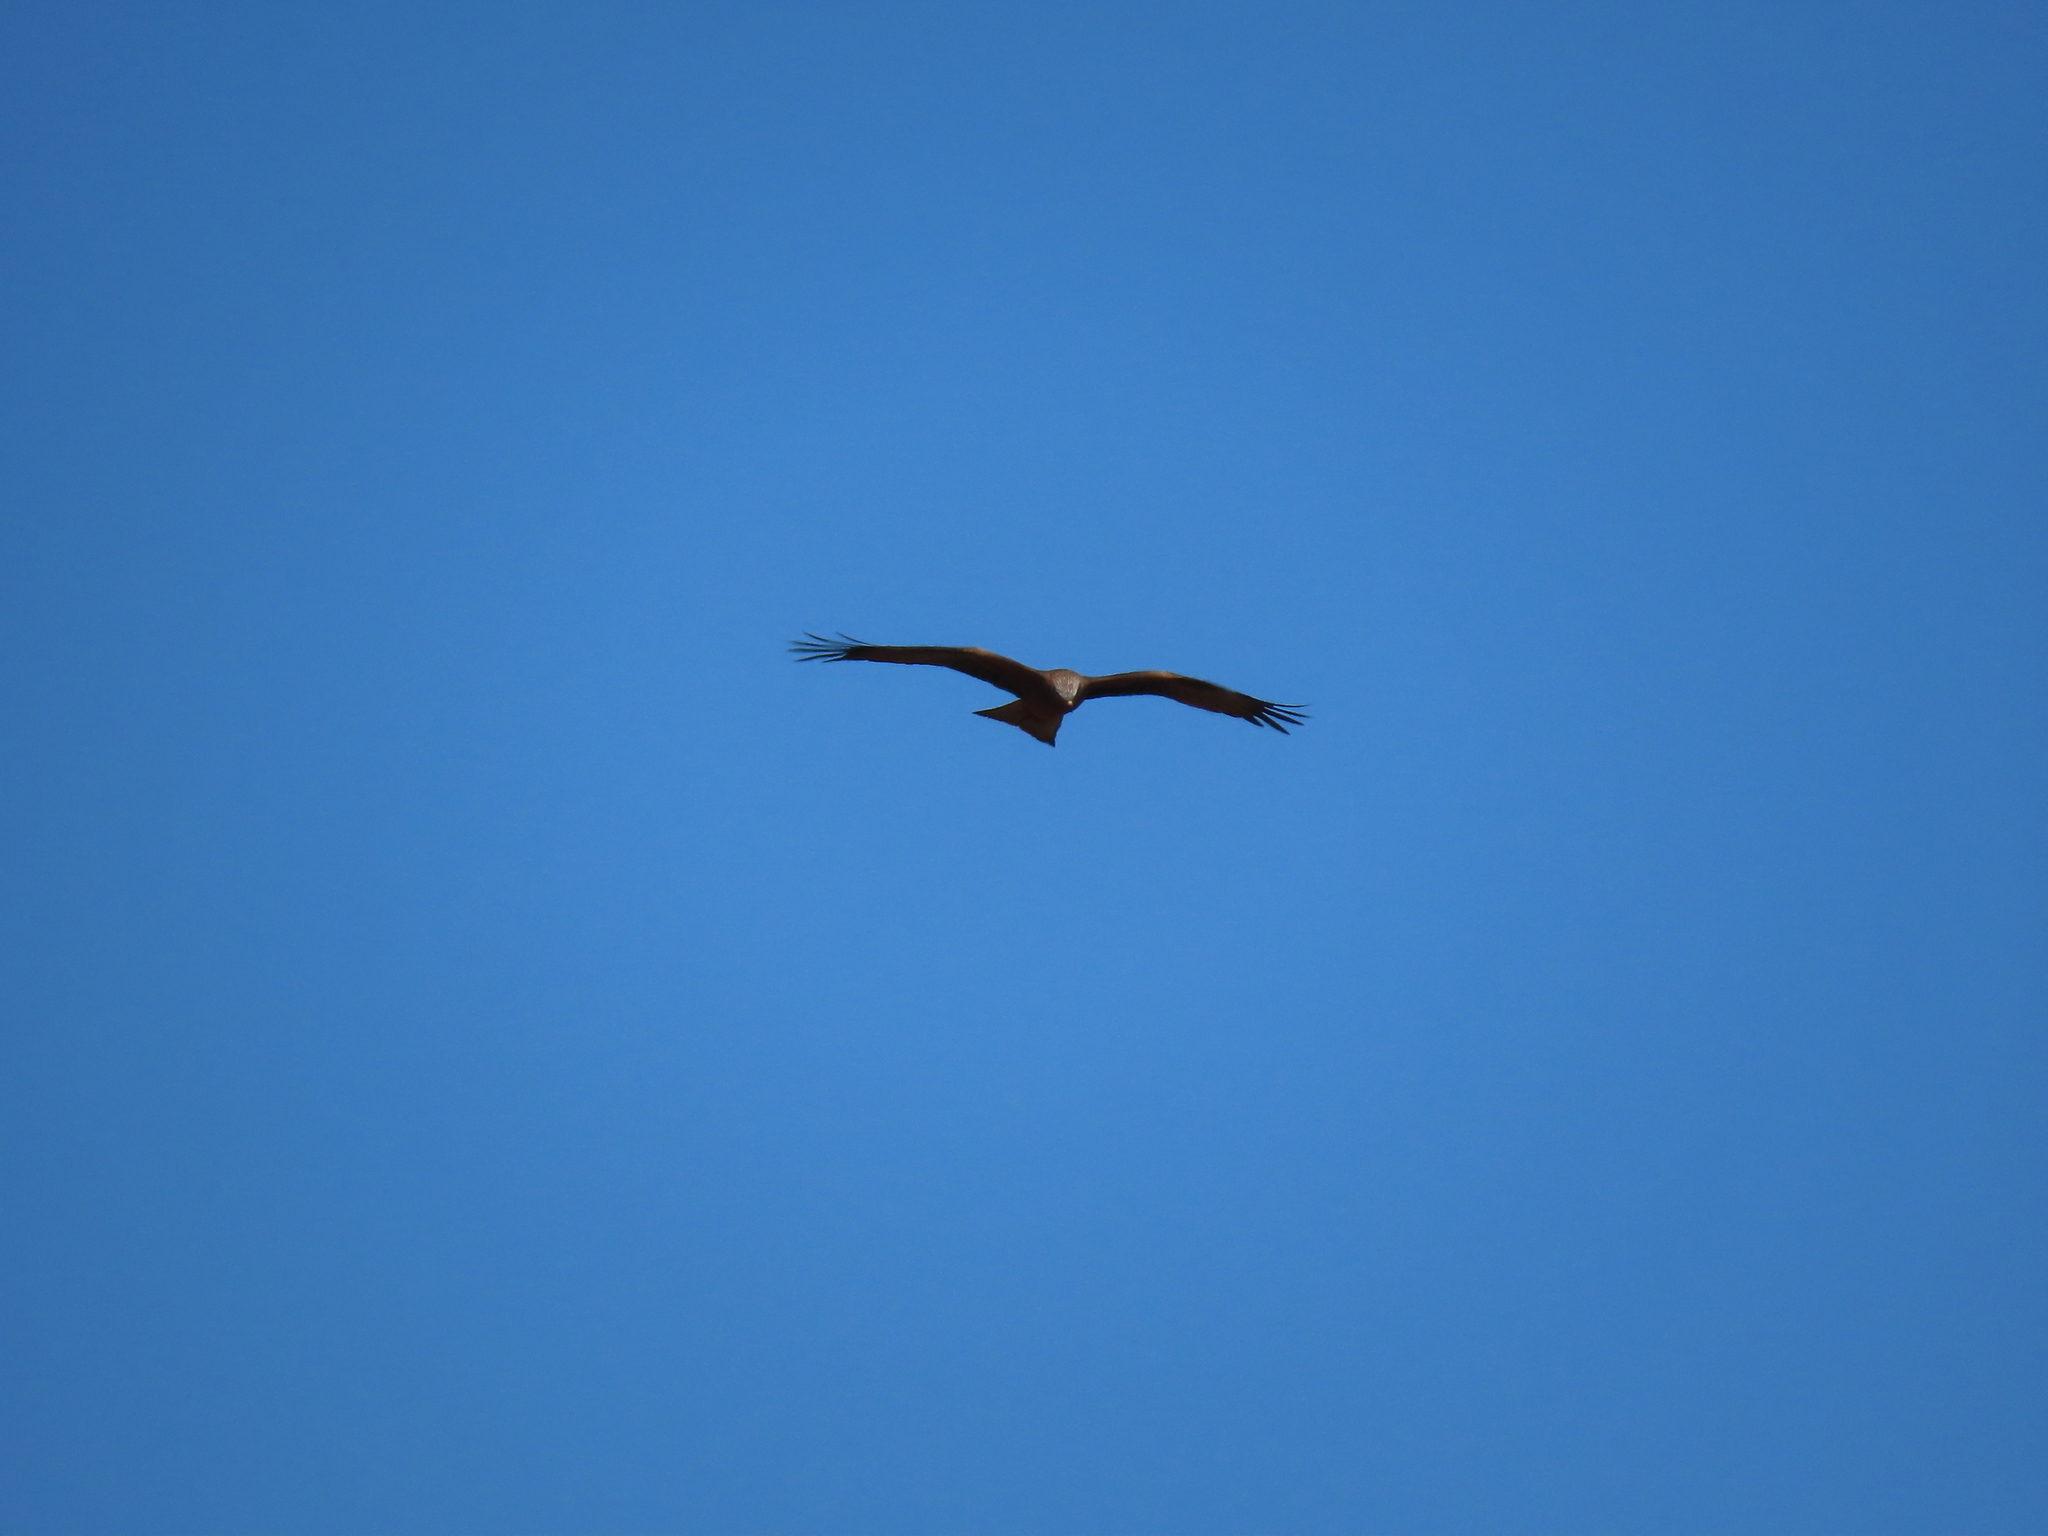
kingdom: Animalia
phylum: Chordata
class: Aves
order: Accipitriformes
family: Accipitridae
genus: Milvus
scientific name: Milvus migrans
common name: Black kite
